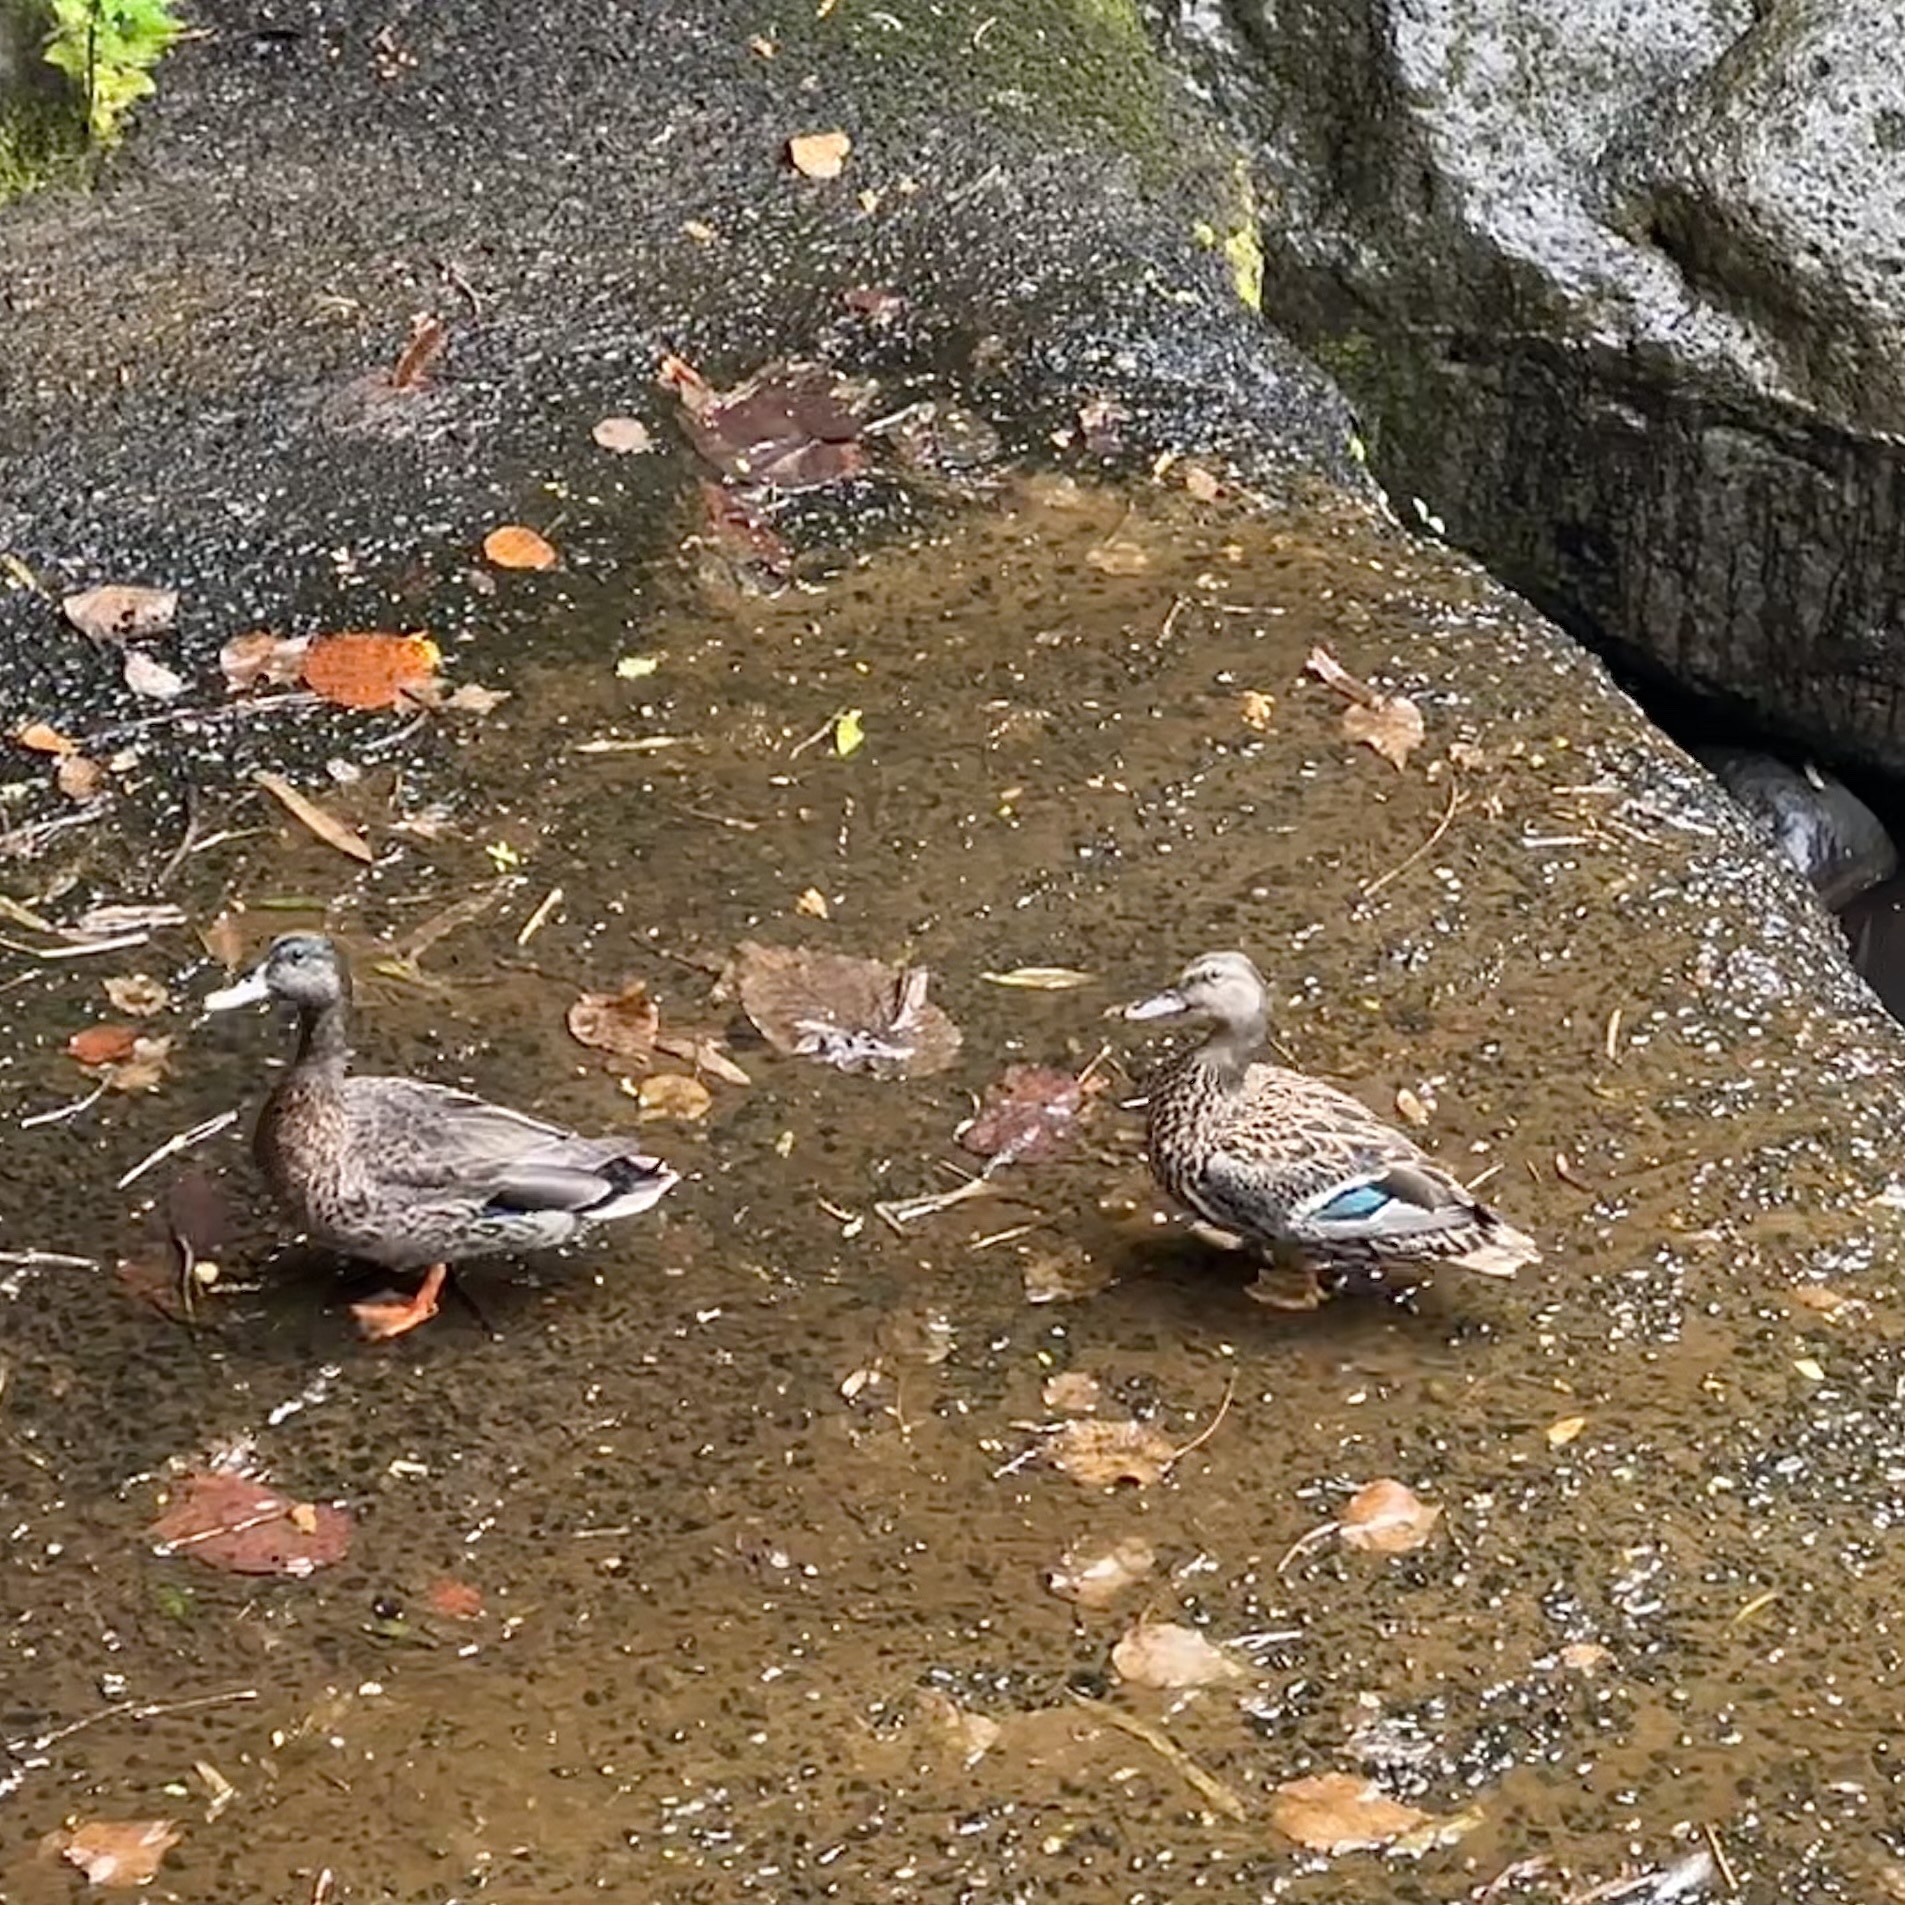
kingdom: Animalia
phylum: Chordata
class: Aves
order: Anseriformes
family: Anatidae
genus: Anas
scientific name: Anas
